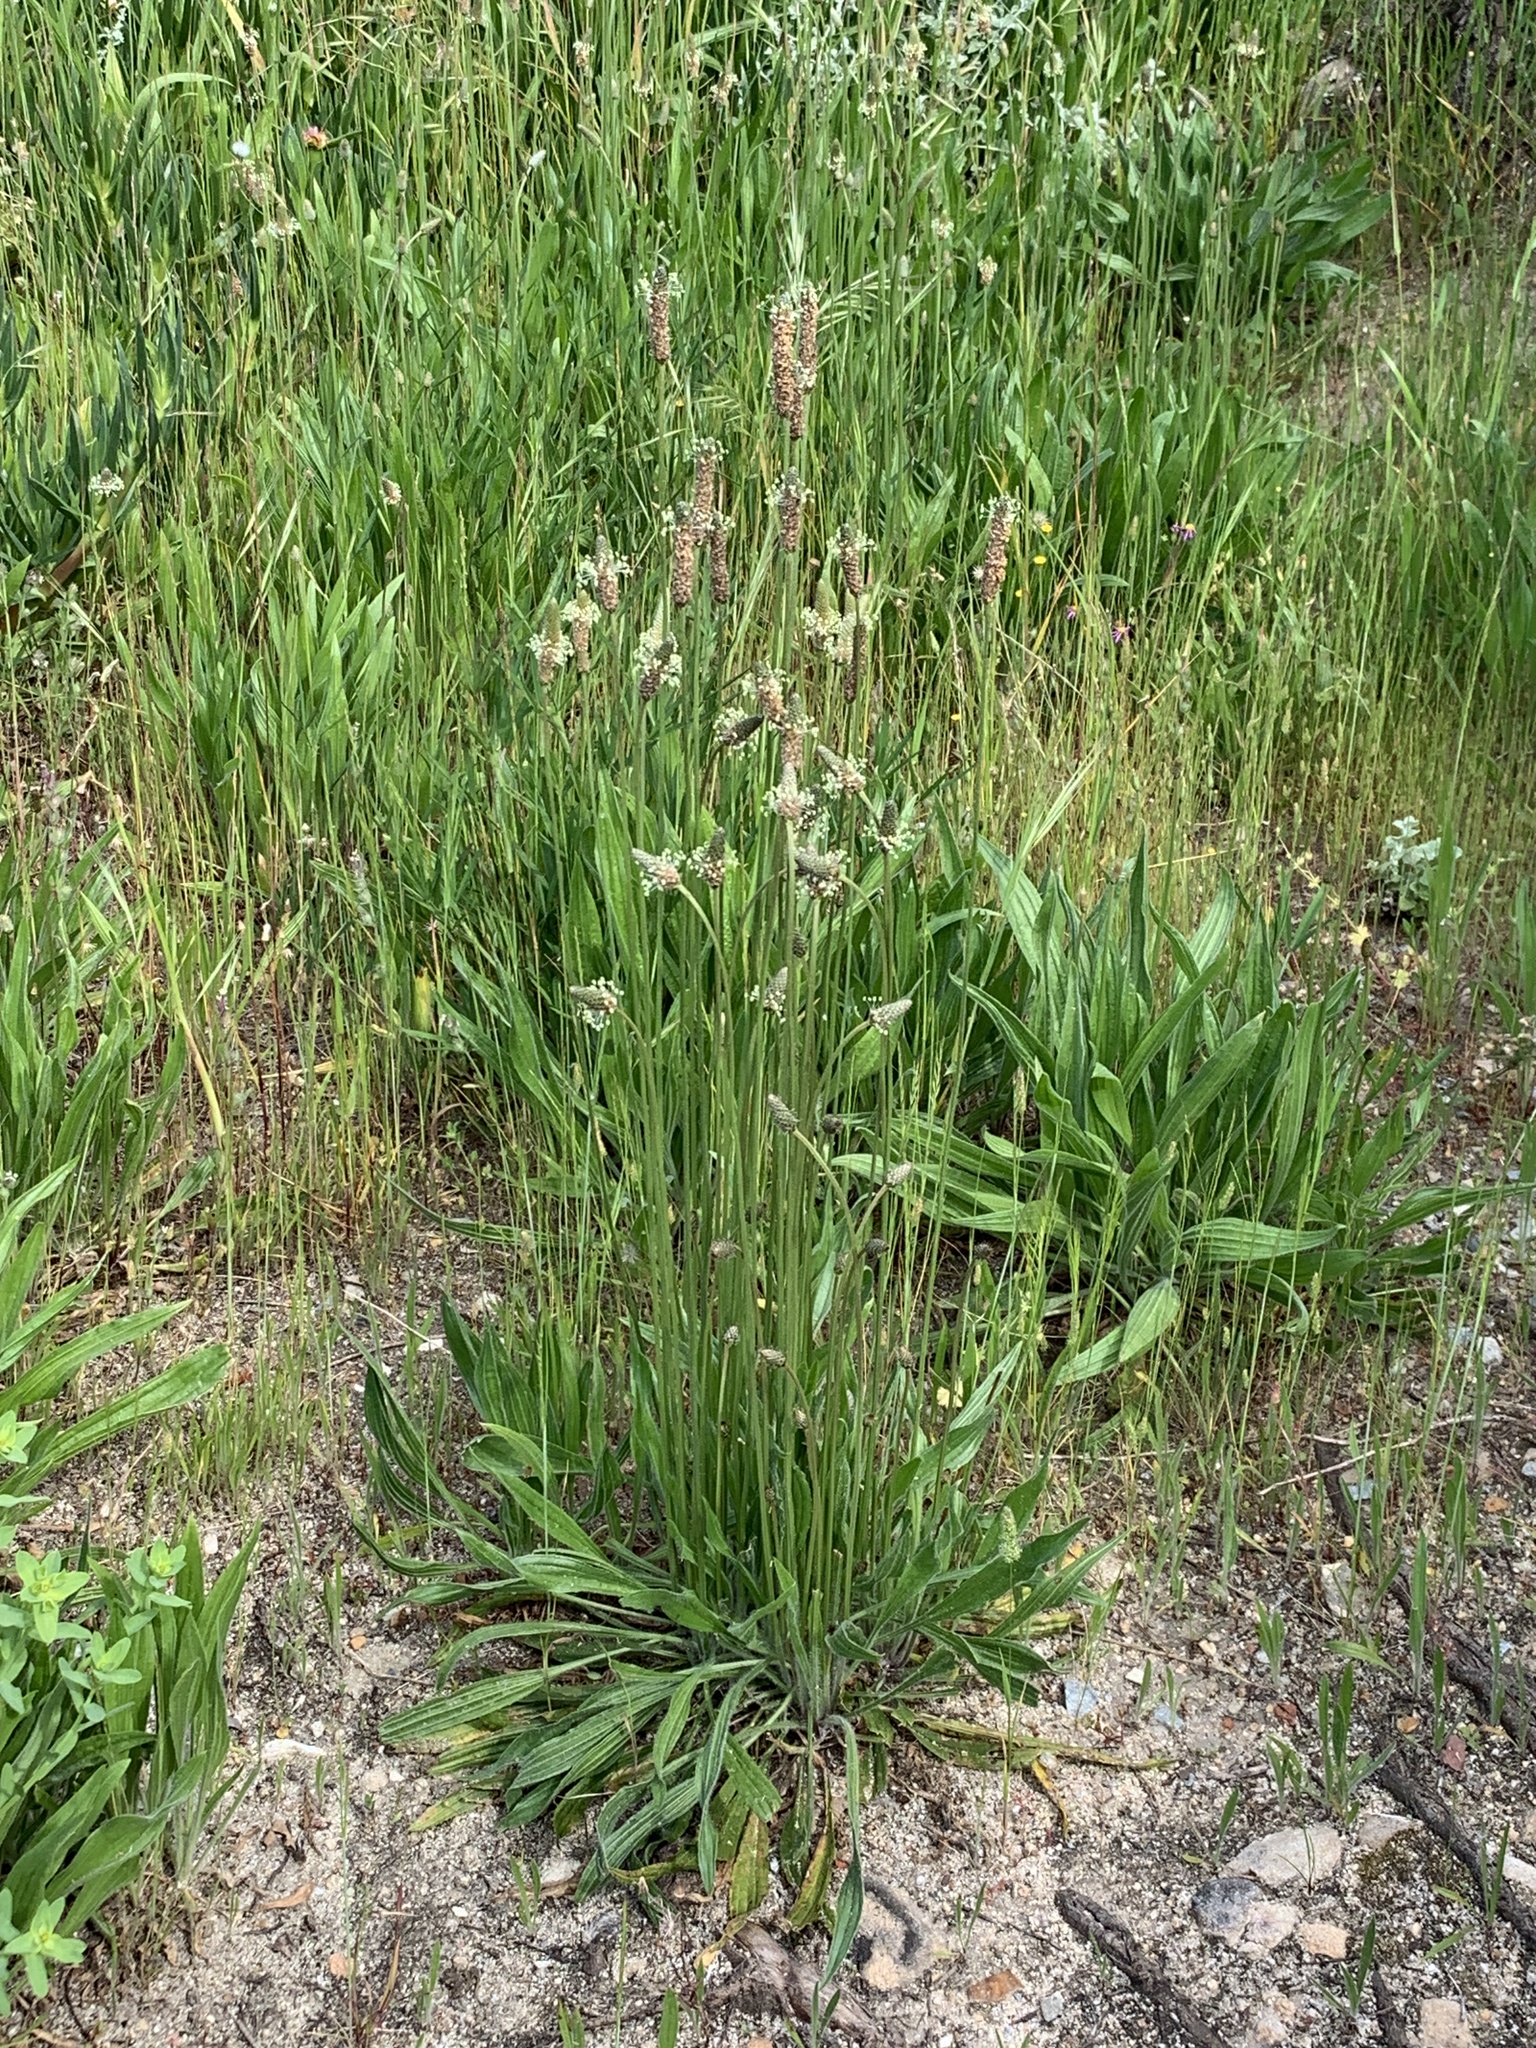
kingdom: Plantae
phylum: Tracheophyta
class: Magnoliopsida
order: Lamiales
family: Plantaginaceae
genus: Plantago
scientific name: Plantago lanceolata
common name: Ribwort plantain
